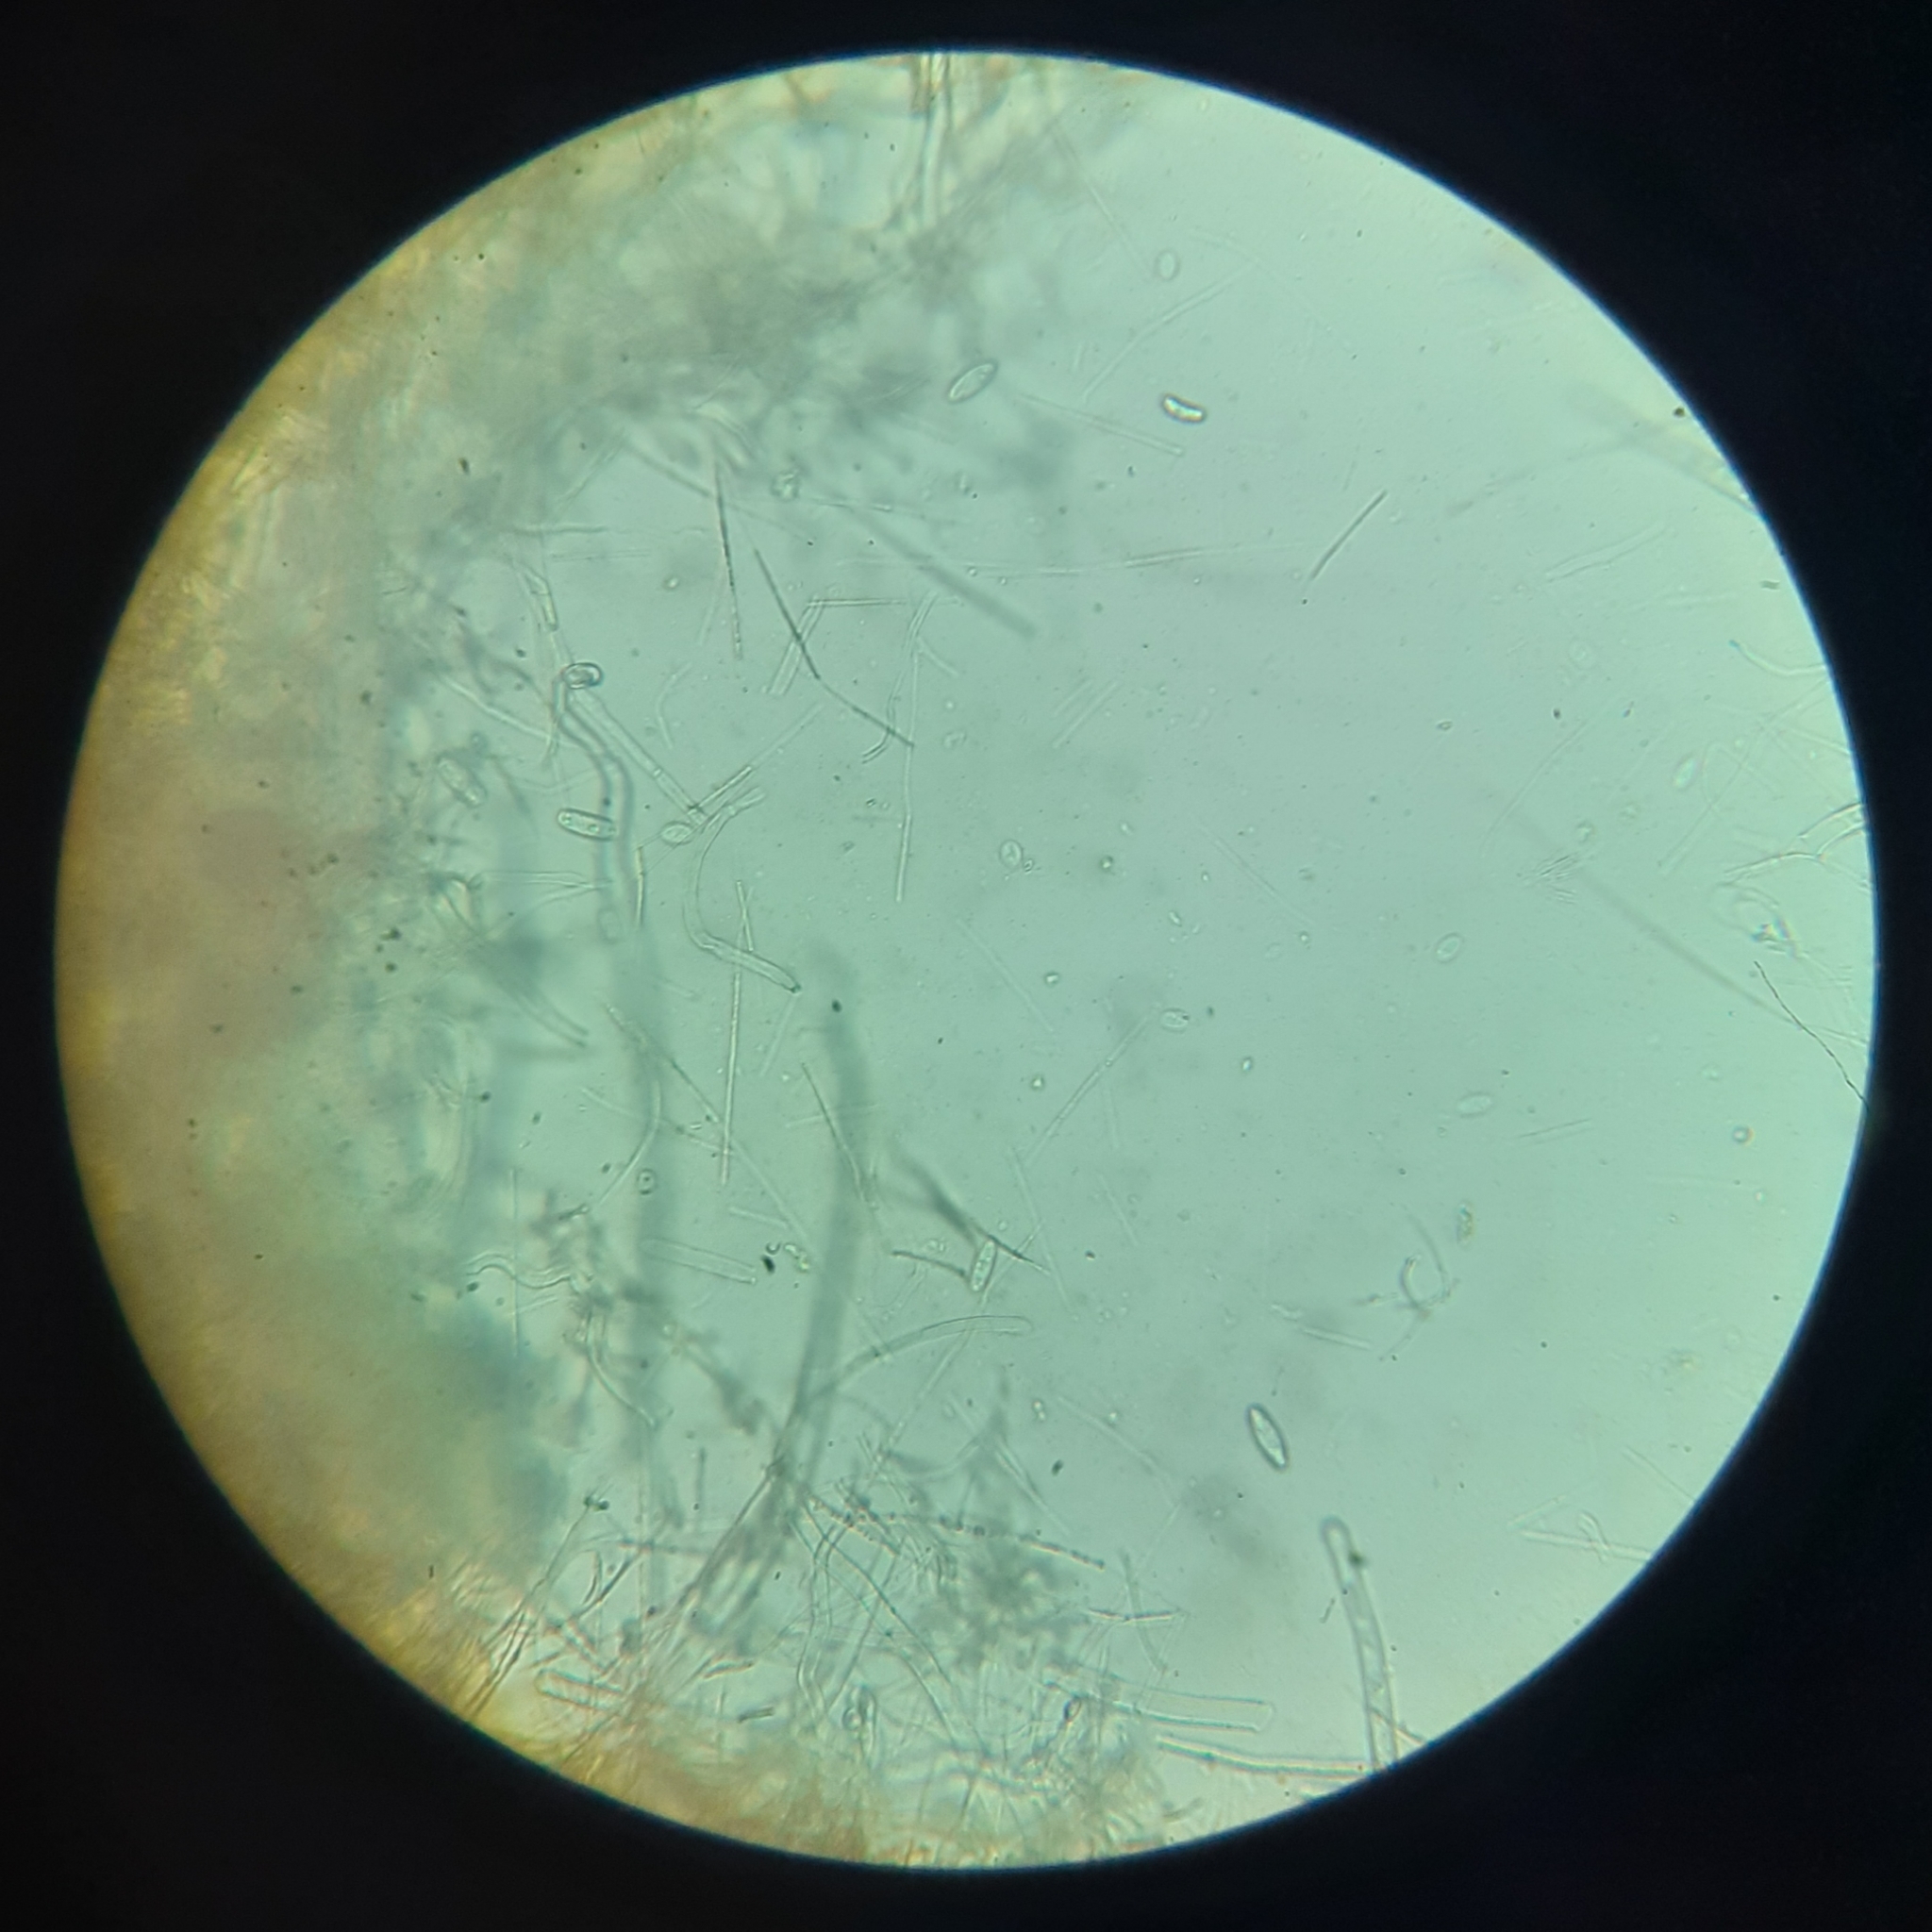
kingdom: Fungi
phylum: Ascomycota
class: Pezizomycetes
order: Pezizales
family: Sarcoscyphaceae
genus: Sarcoscypha
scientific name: Sarcoscypha
